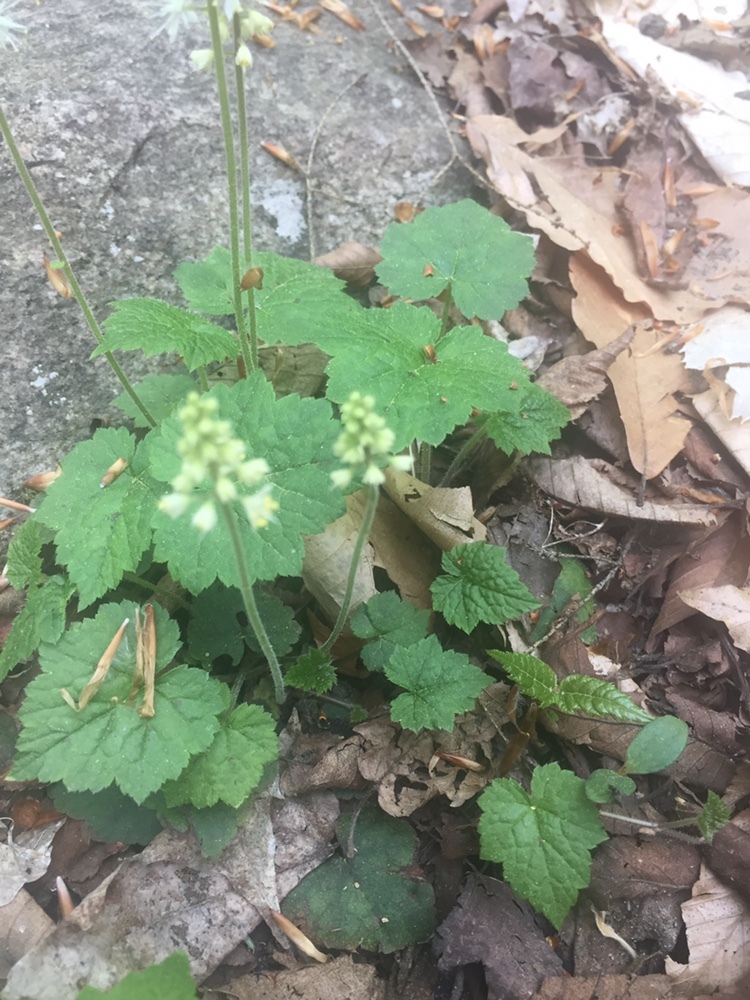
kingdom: Plantae
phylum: Tracheophyta
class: Magnoliopsida
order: Saxifragales
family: Saxifragaceae
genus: Tiarella
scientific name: Tiarella stolonifera
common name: Stoloniferous foamflower
